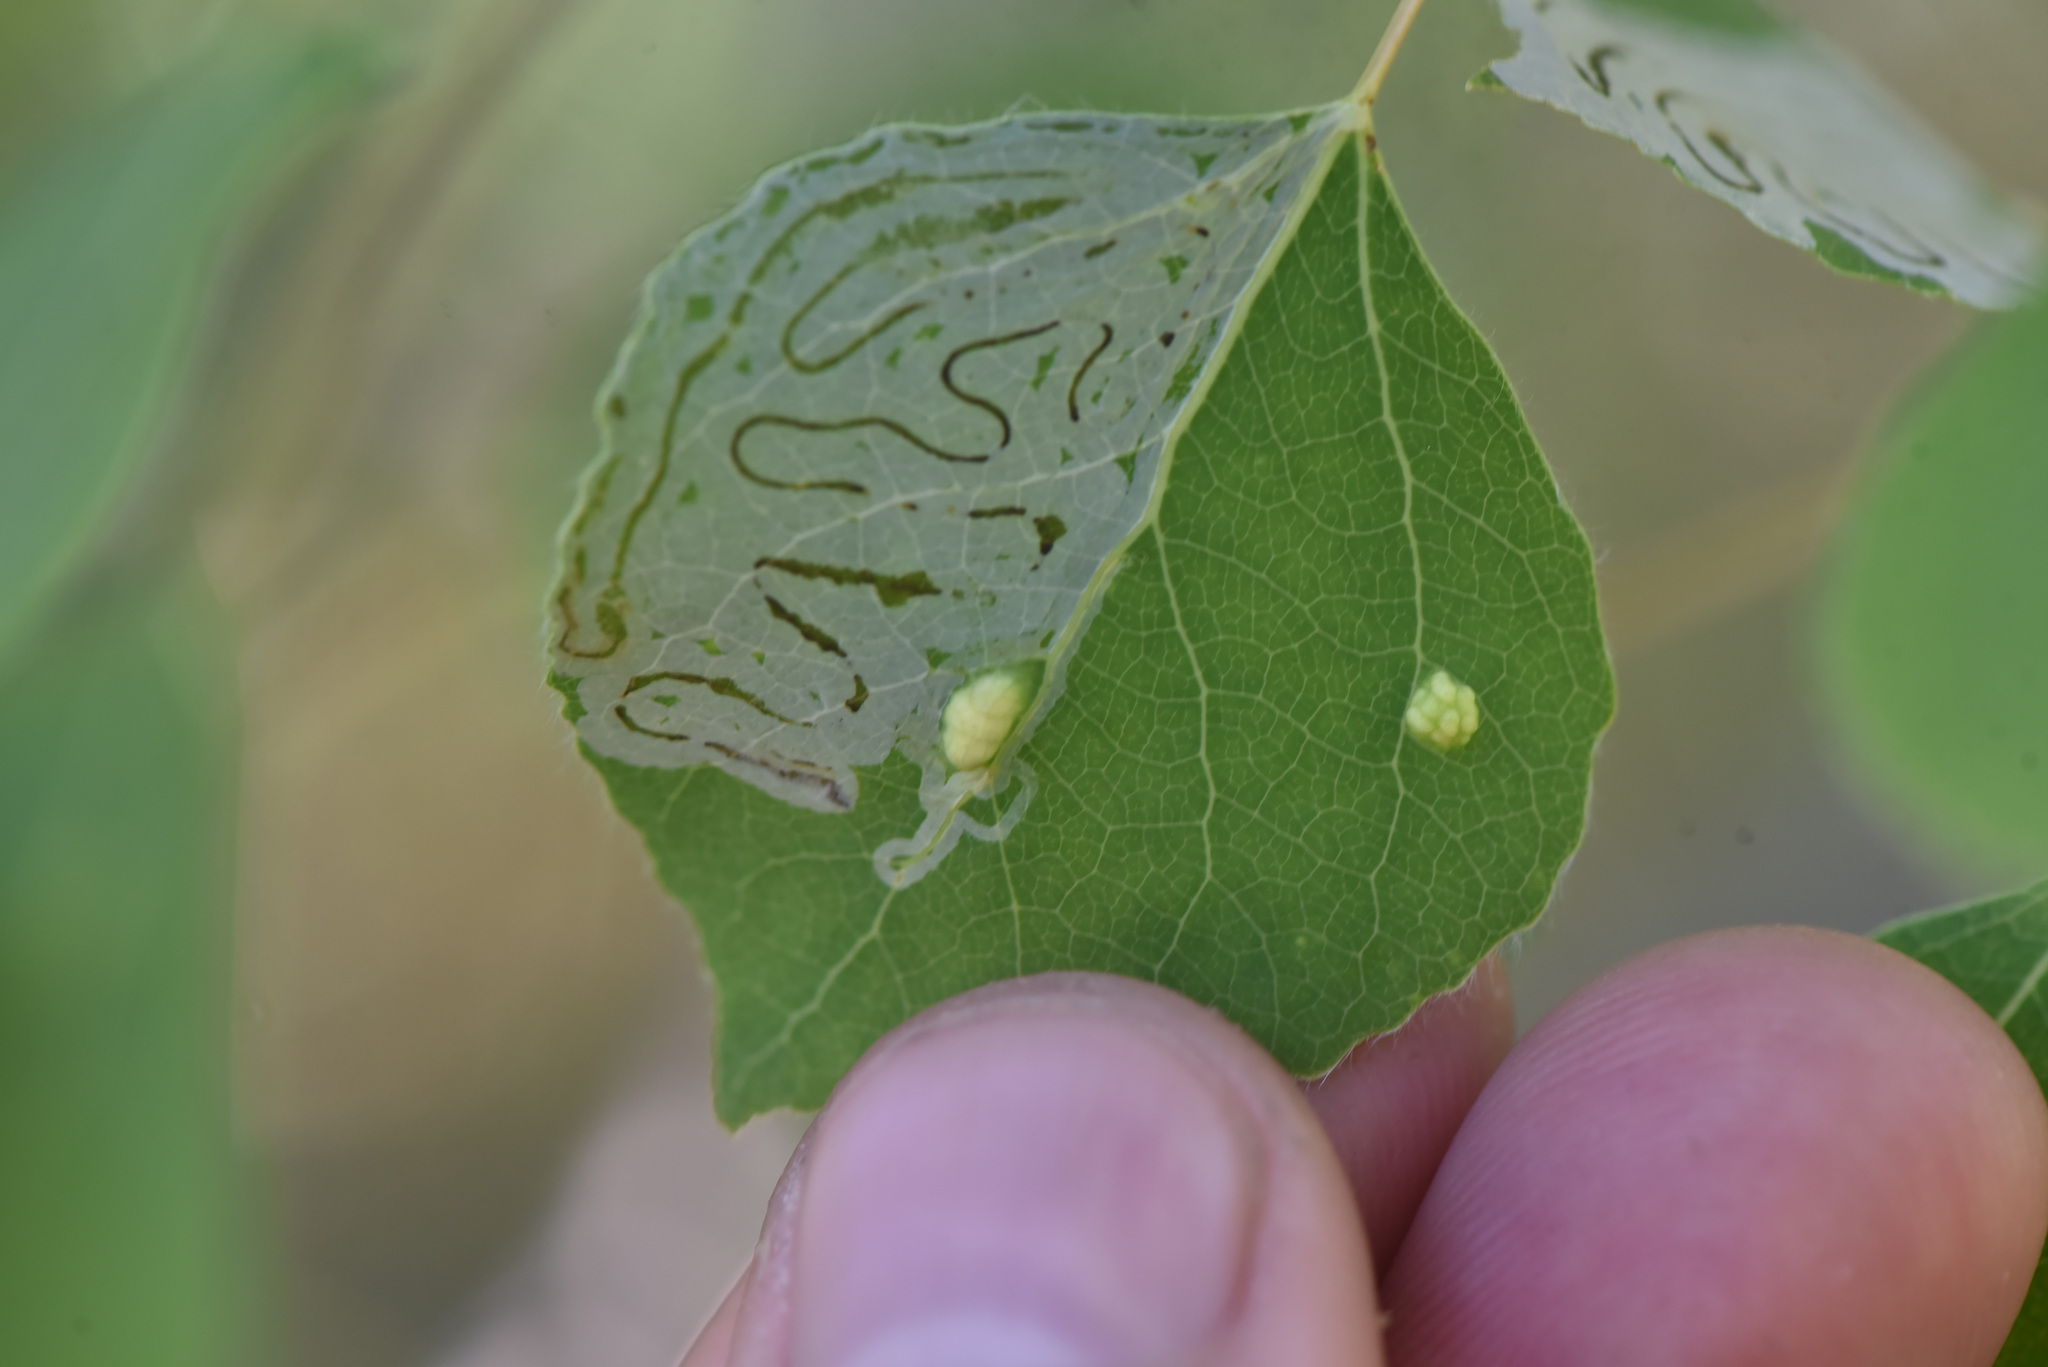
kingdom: Animalia
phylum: Arthropoda
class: Insecta
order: Lepidoptera
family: Gracillariidae
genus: Phyllocnistis
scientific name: Phyllocnistis populiella
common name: Aspen serpentine leafminer moth
